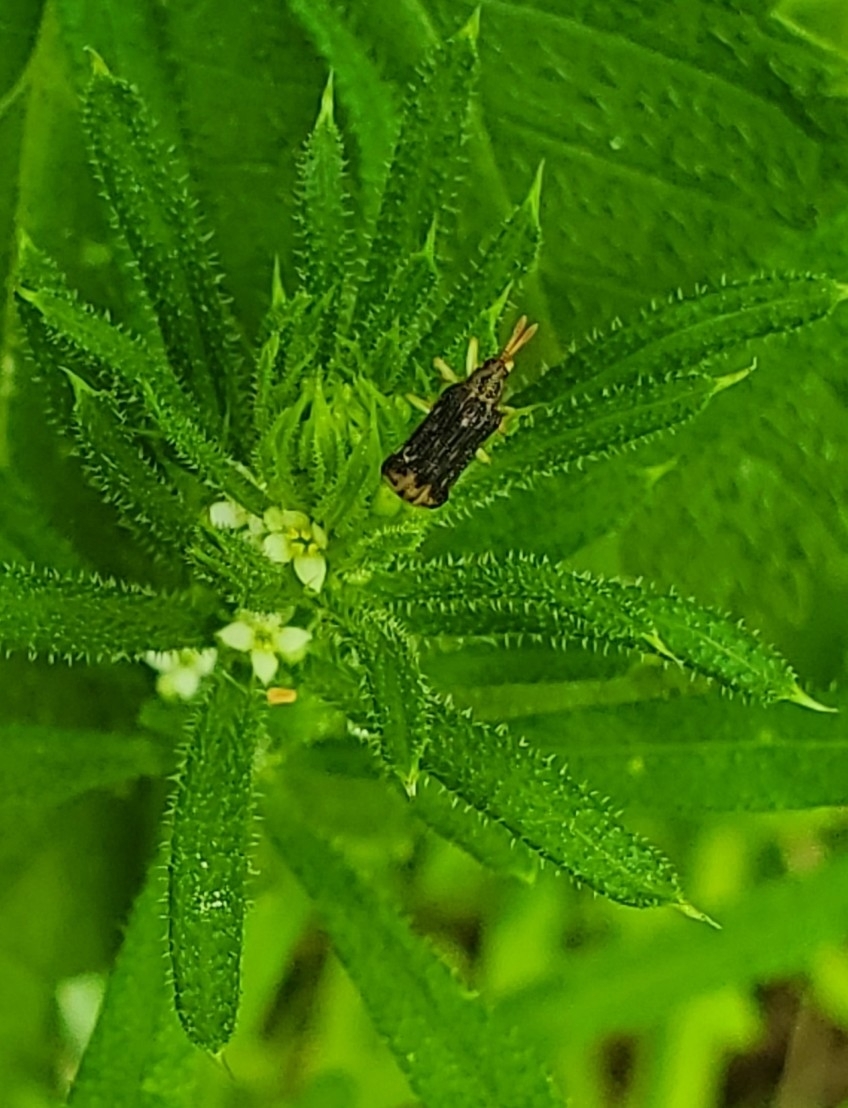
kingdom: Animalia
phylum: Arthropoda
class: Insecta
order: Coleoptera
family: Chrysomelidae
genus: Sumitrosis
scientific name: Sumitrosis rosea
